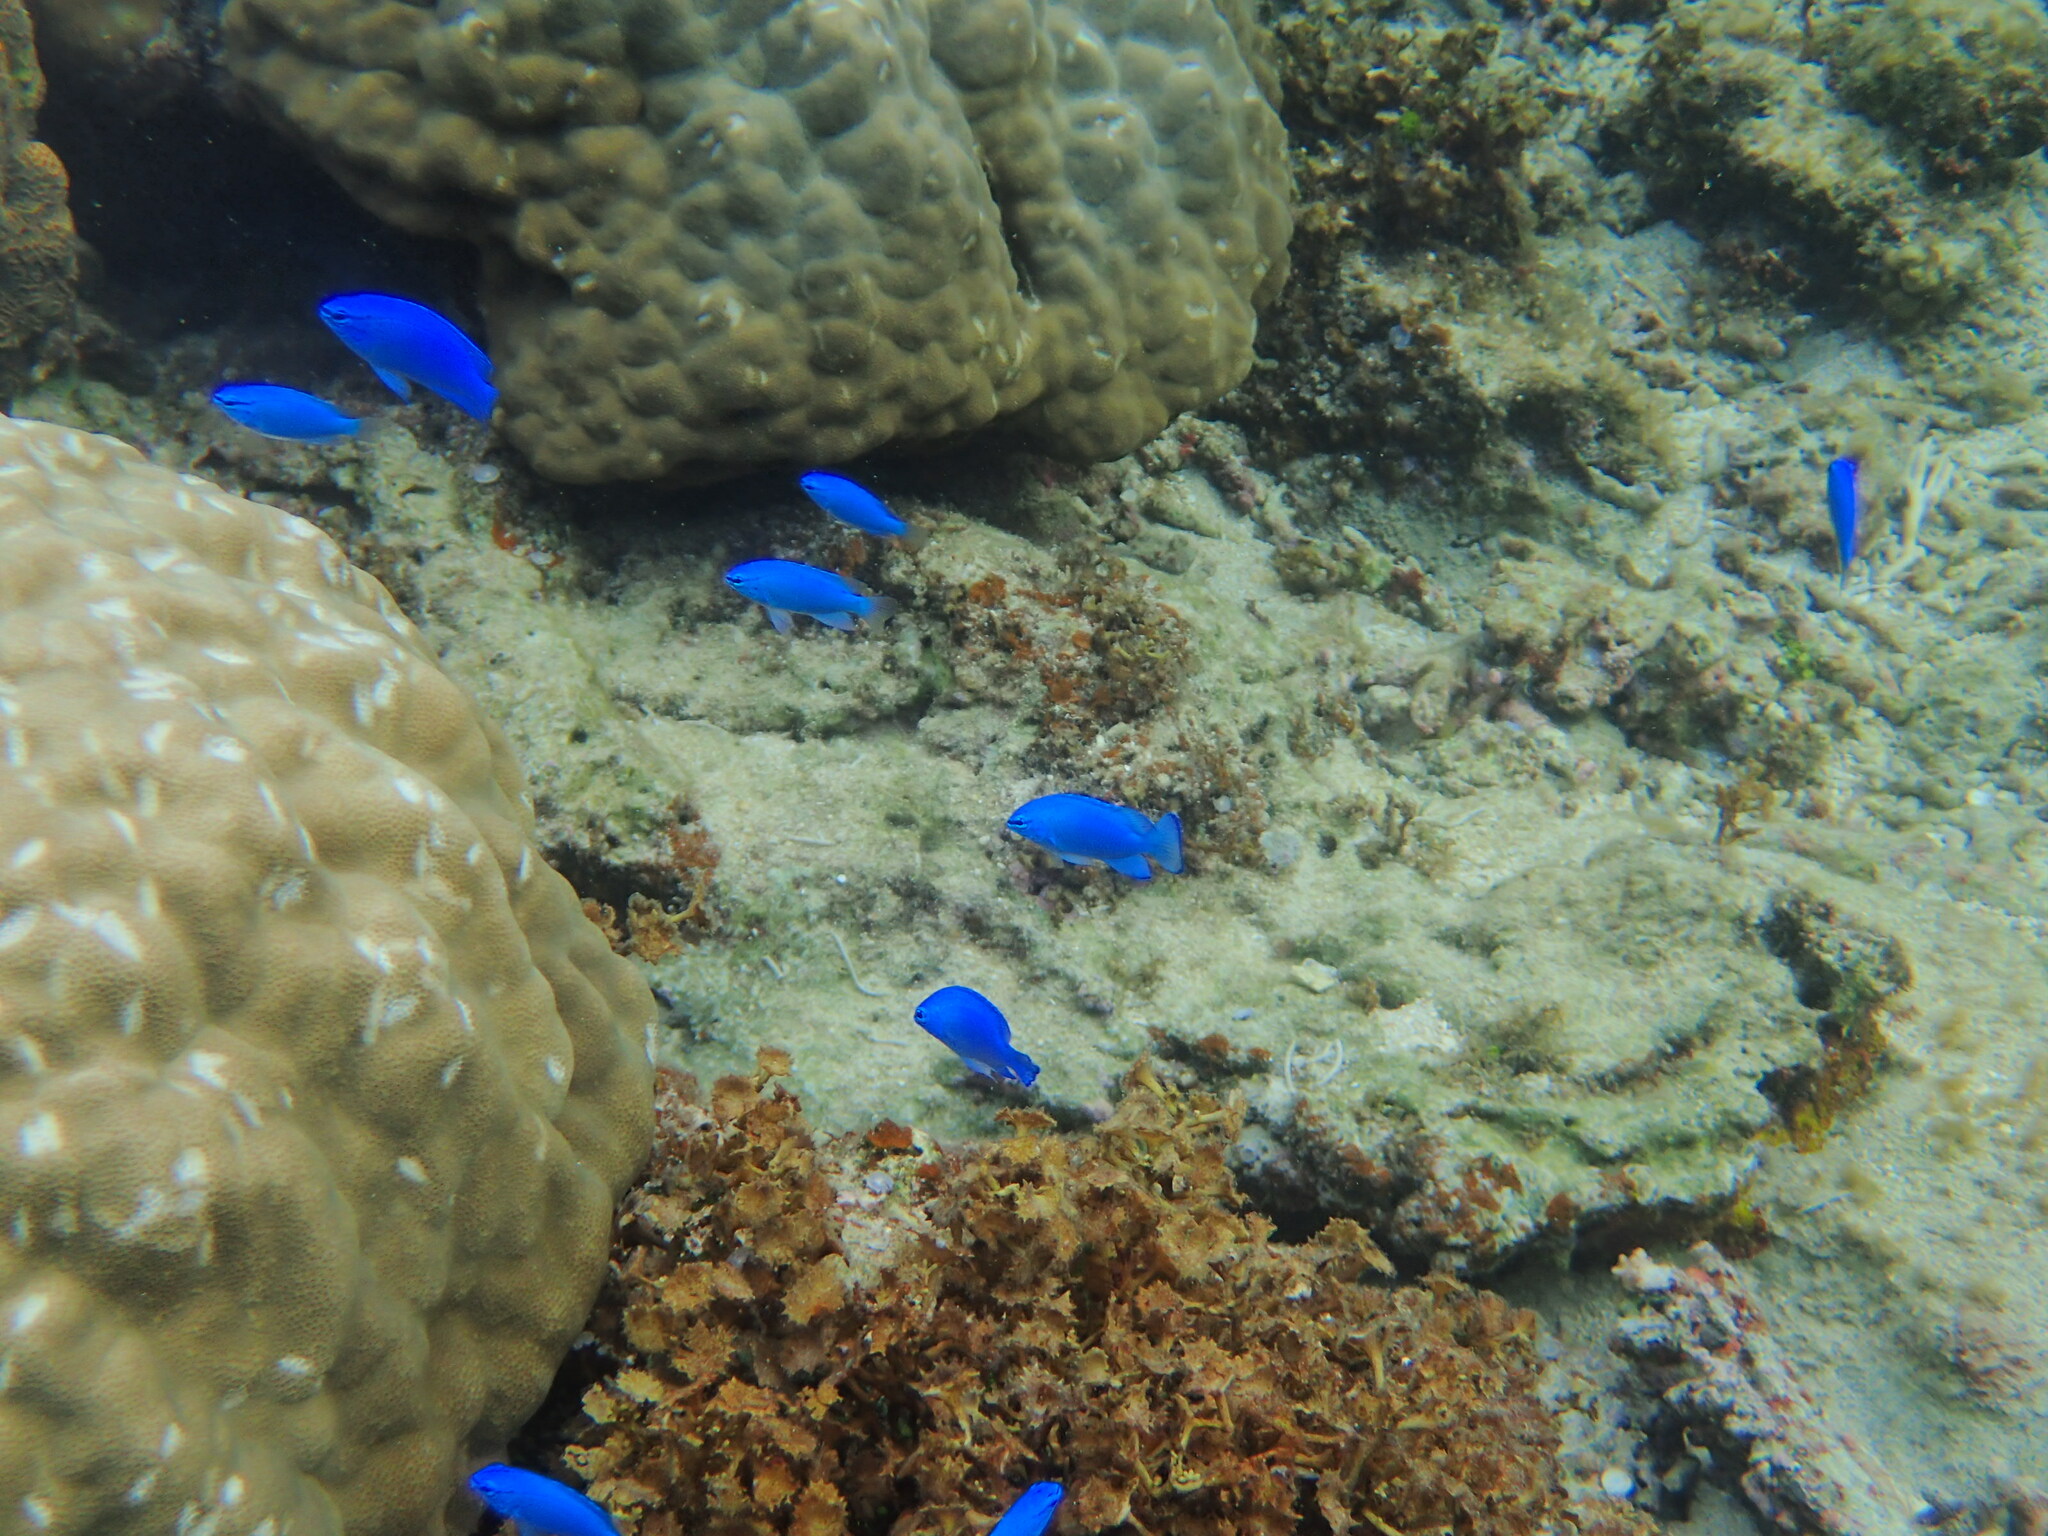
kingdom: Animalia
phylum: Chordata
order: Perciformes
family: Pomacentridae
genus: Chrysiptera
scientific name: Chrysiptera cyanea
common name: Blue devil
